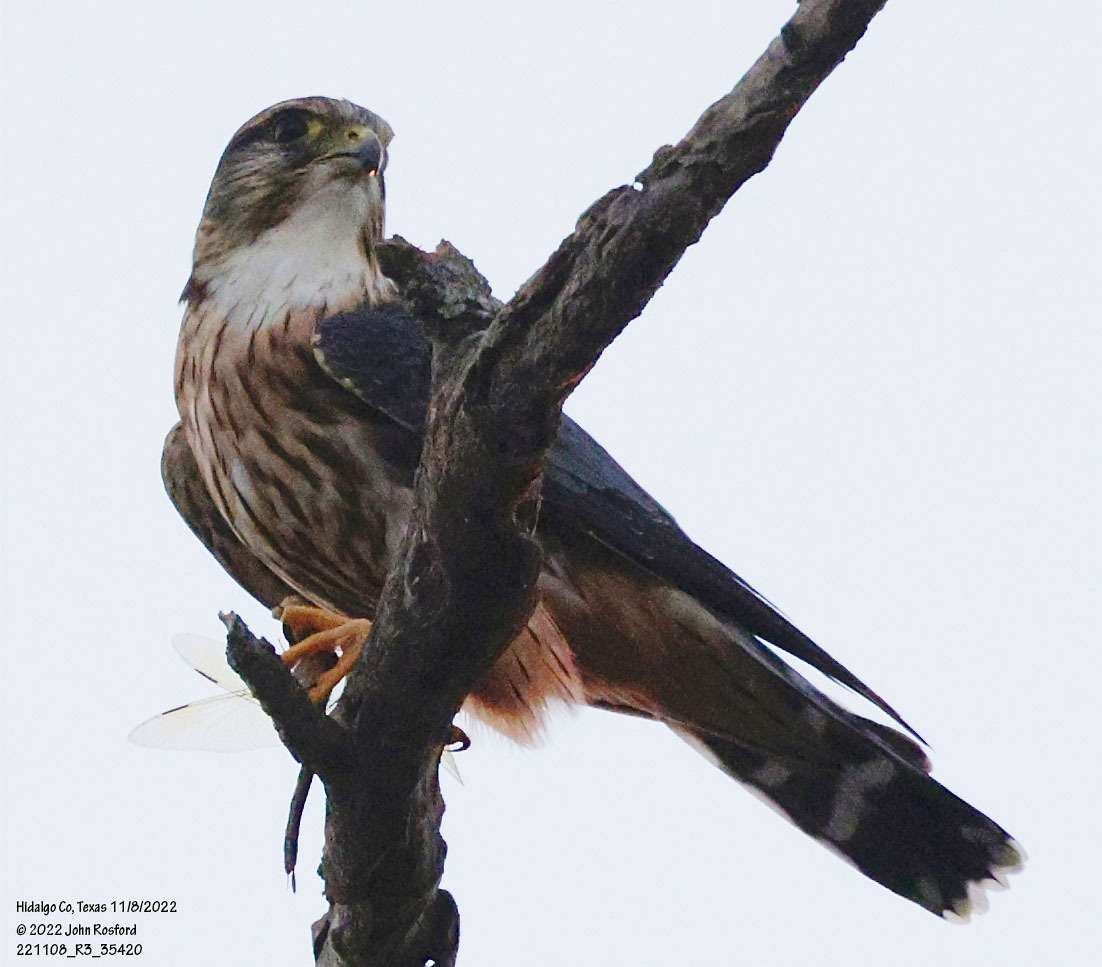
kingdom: Animalia
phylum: Chordata
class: Aves
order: Falconiformes
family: Falconidae
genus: Falco
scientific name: Falco columbarius
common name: Merlin
